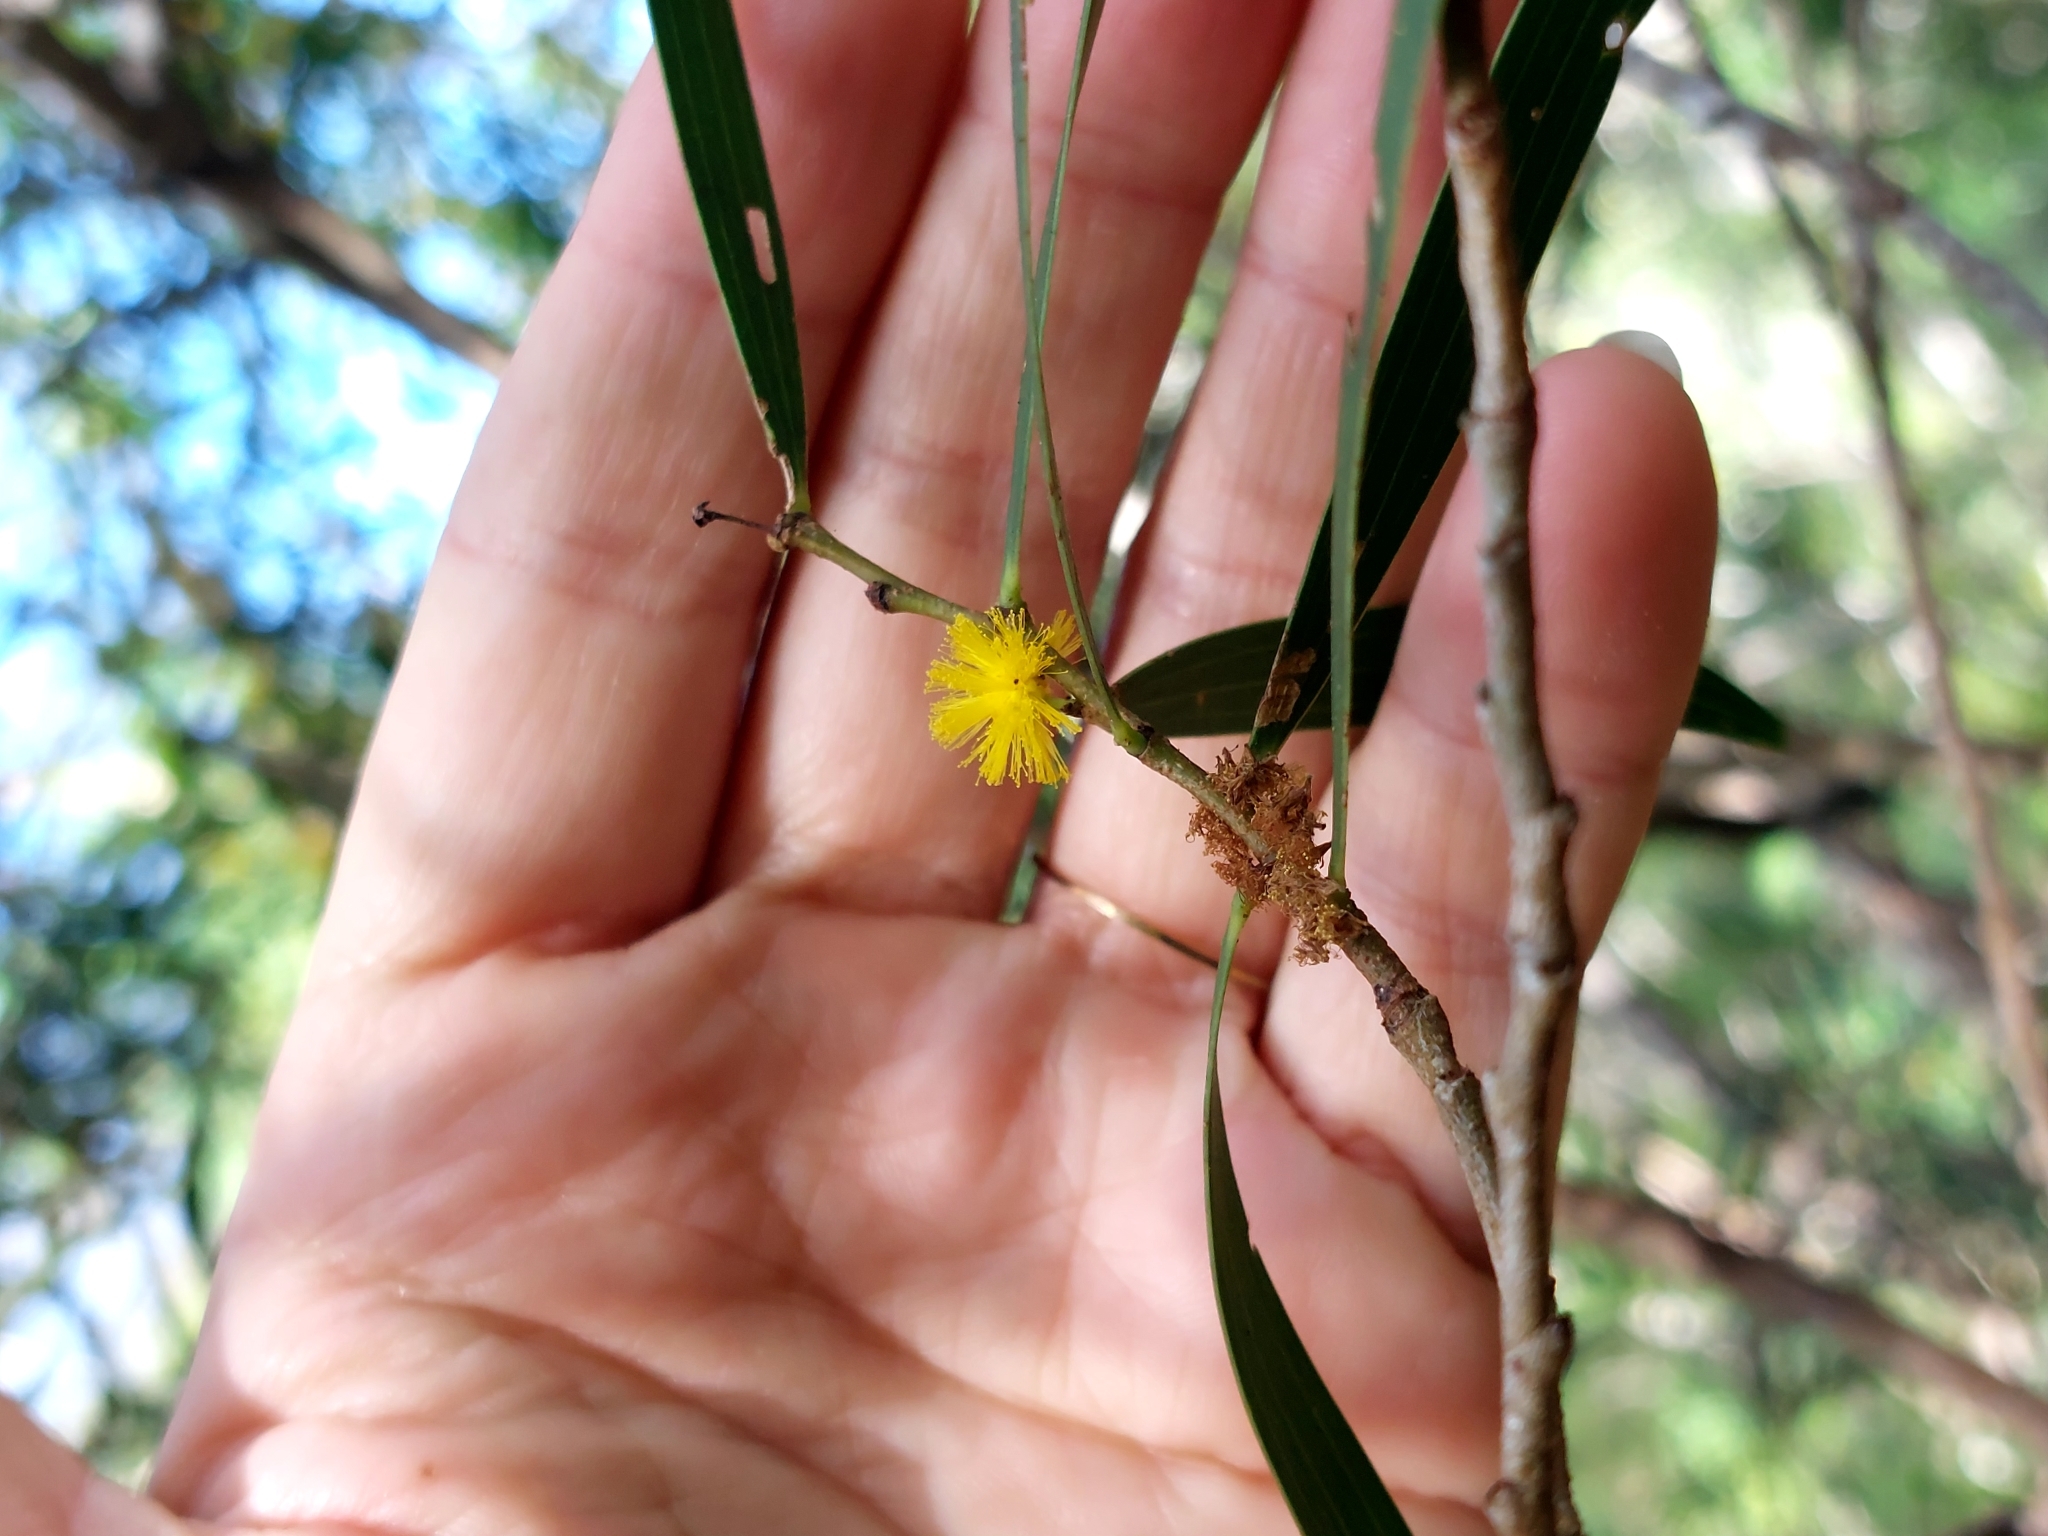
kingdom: Plantae
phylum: Tracheophyta
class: Magnoliopsida
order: Fabales
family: Fabaceae
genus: Acacia
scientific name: Acacia confusa
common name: Formosan koa
